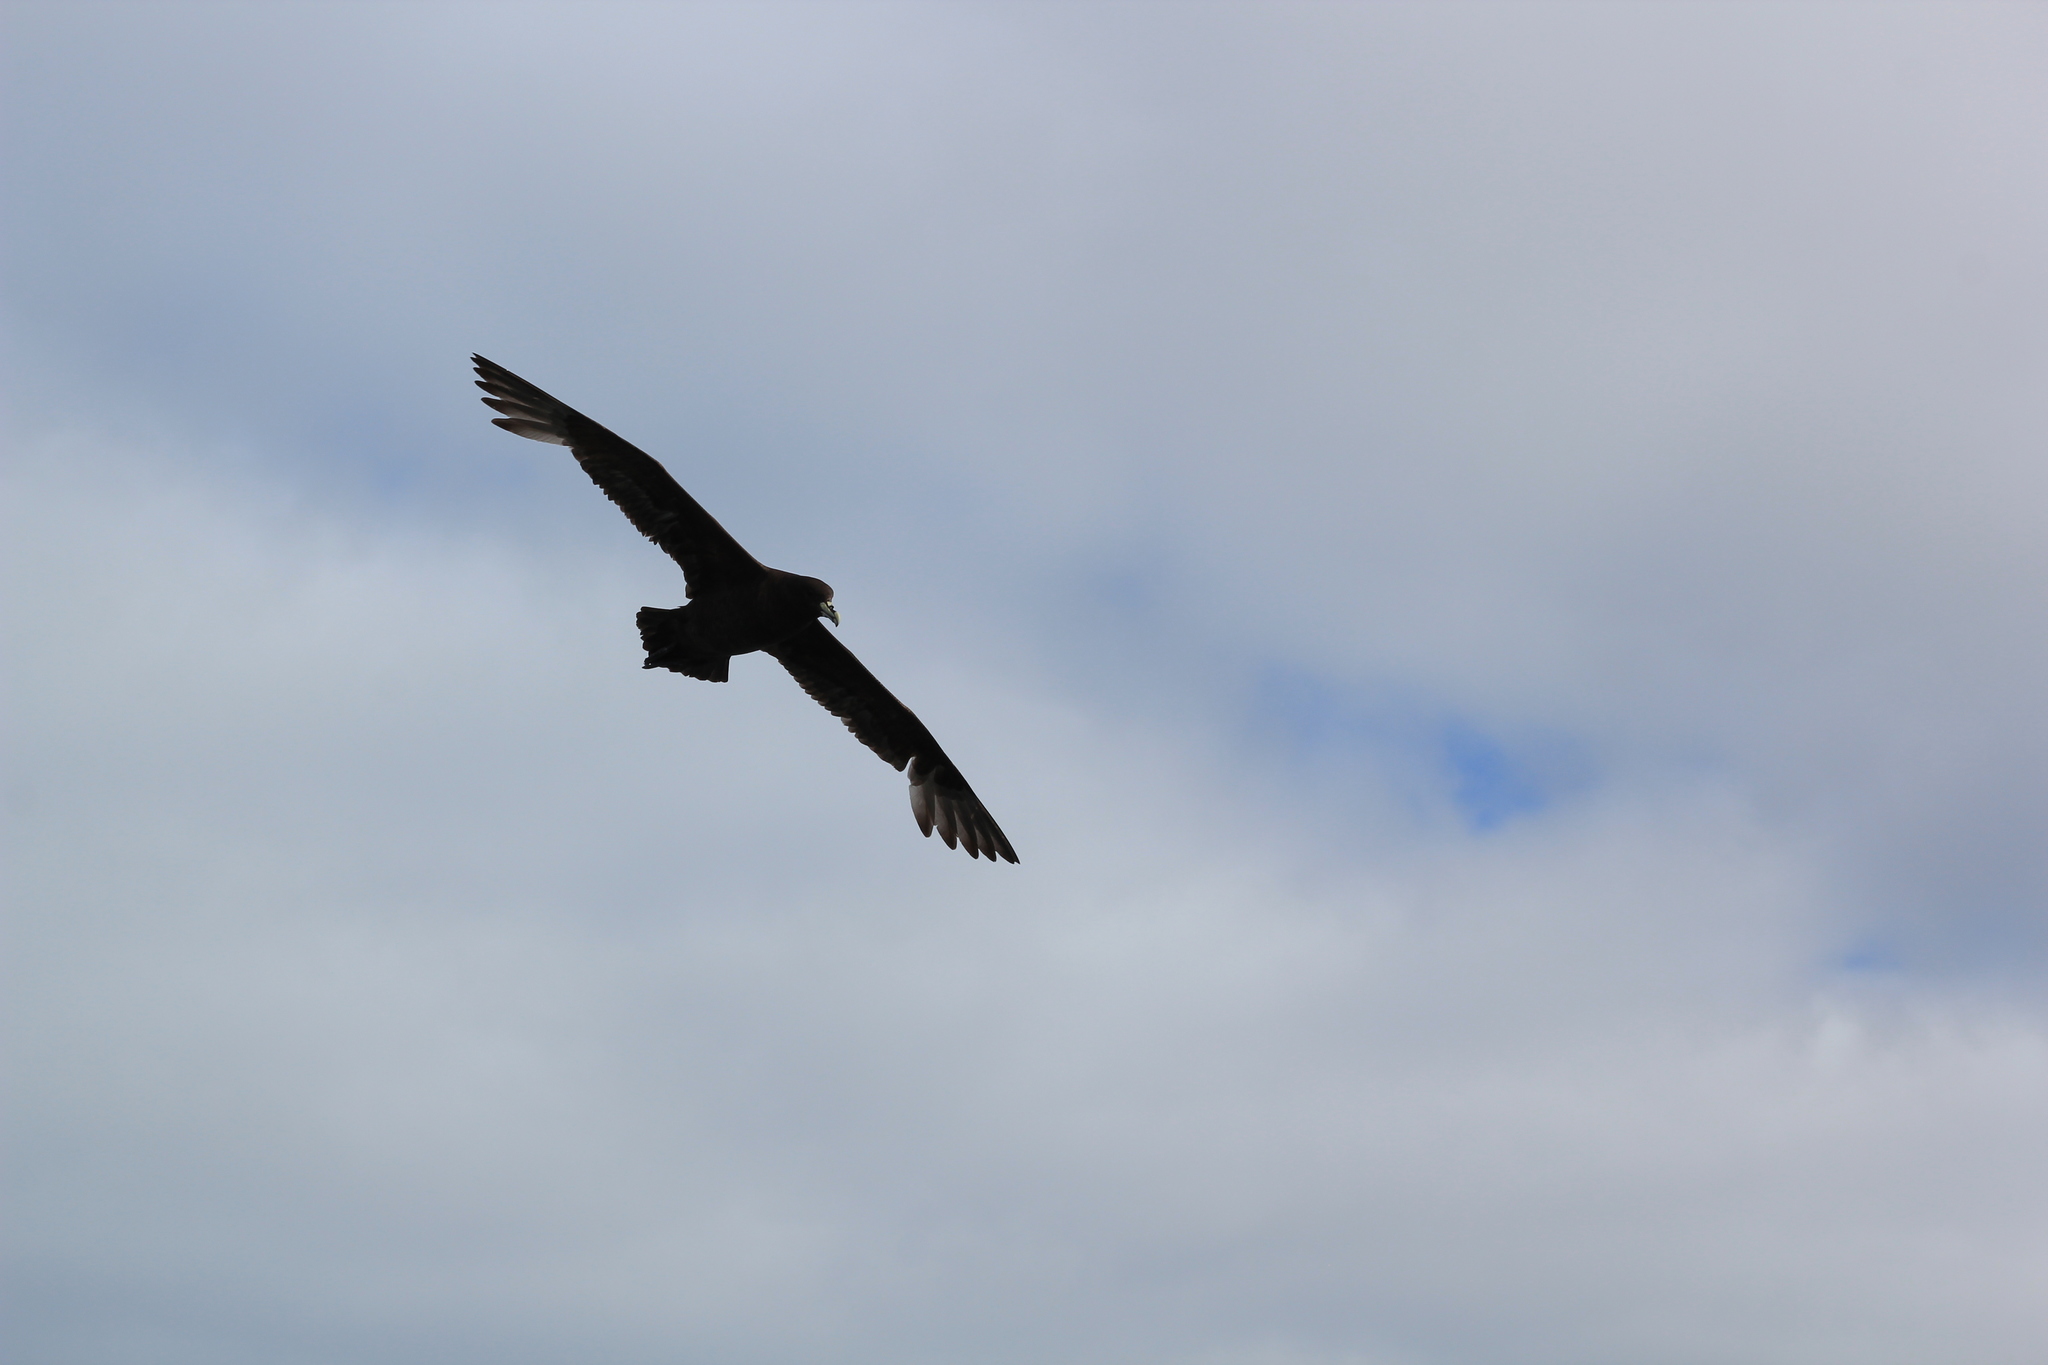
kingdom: Animalia
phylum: Chordata
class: Aves
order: Procellariiformes
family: Procellariidae
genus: Procellaria
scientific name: Procellaria aequinoctialis
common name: White-chinned petrel
